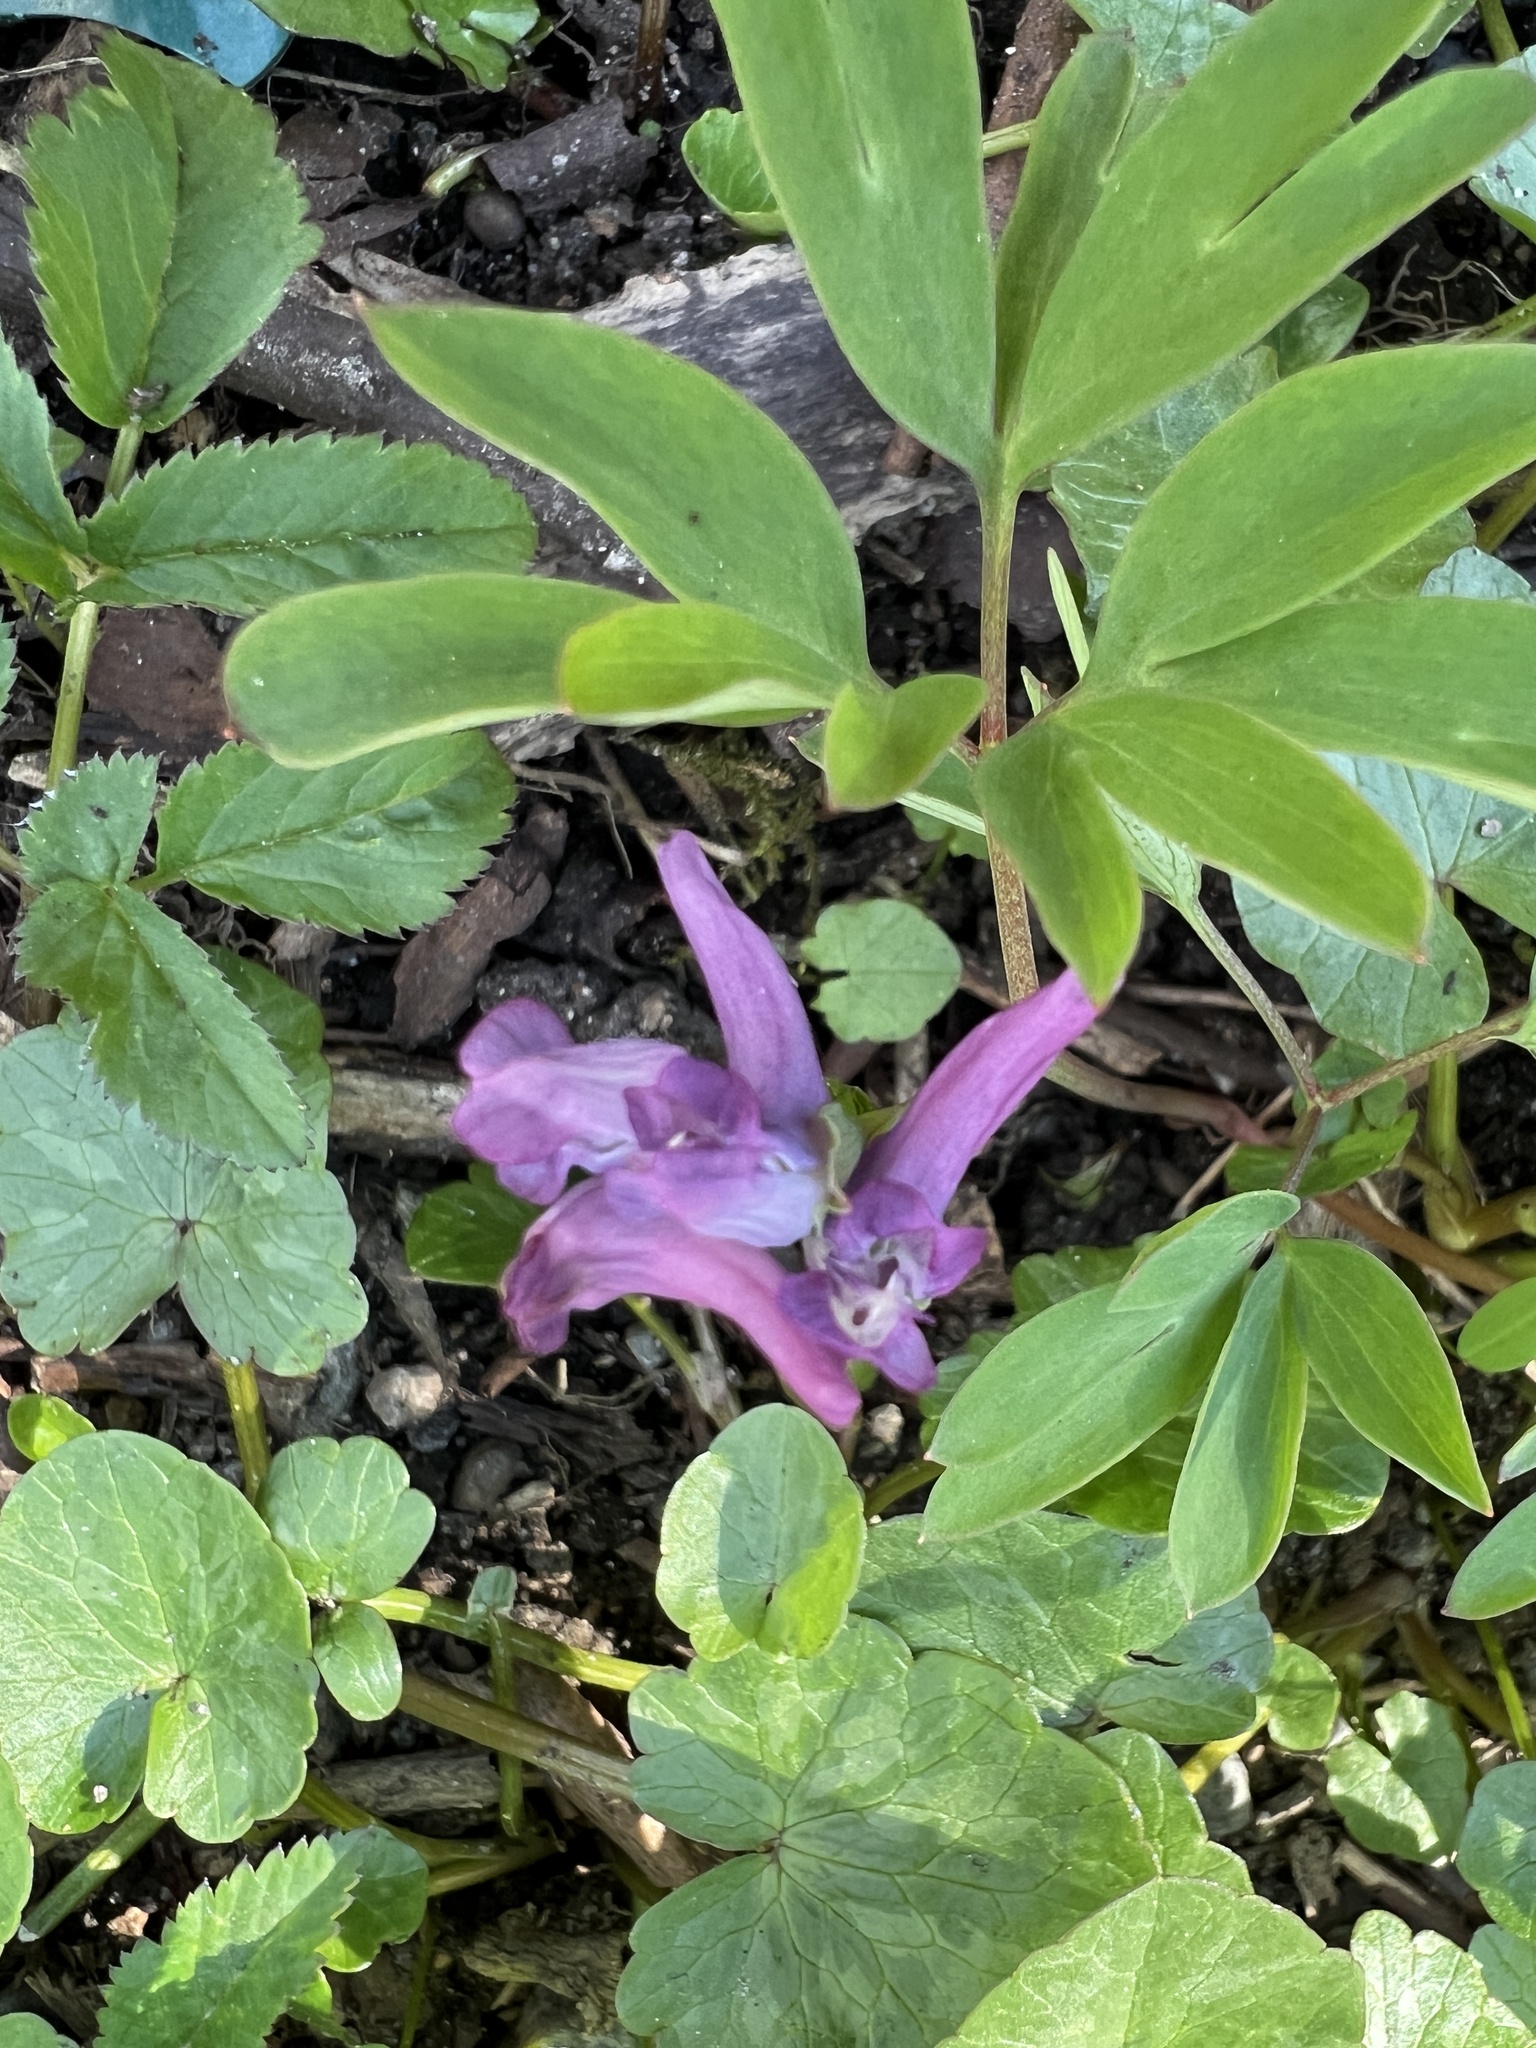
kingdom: Plantae
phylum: Tracheophyta
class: Magnoliopsida
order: Ranunculales
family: Papaveraceae
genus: Corydalis
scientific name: Corydalis intermedia
